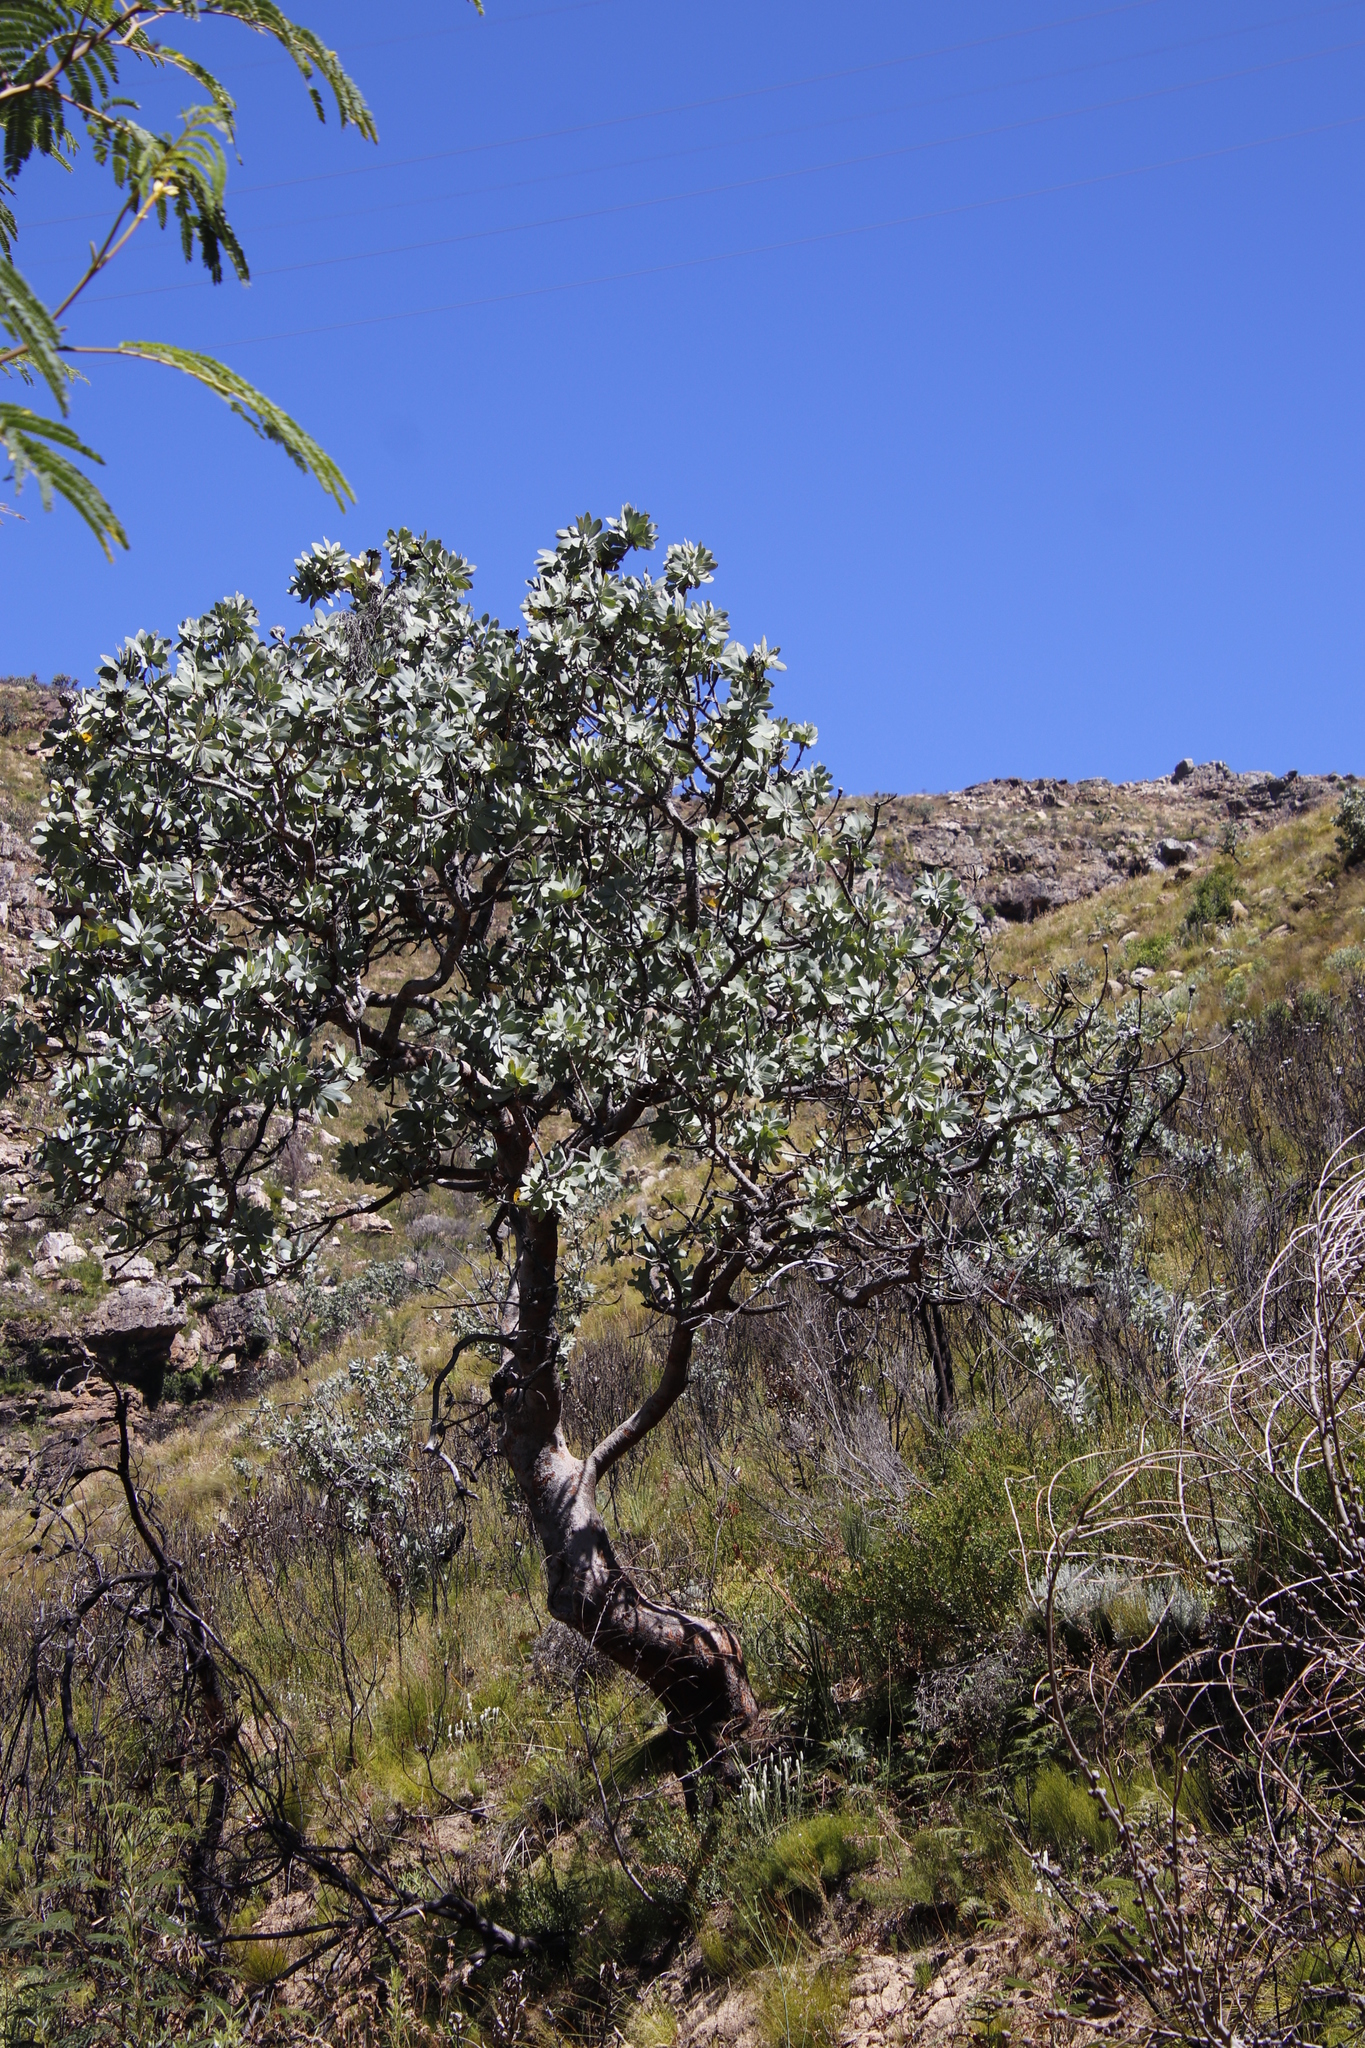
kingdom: Plantae
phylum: Tracheophyta
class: Magnoliopsida
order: Proteales
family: Proteaceae
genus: Protea
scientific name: Protea nitida
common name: Tree protea
